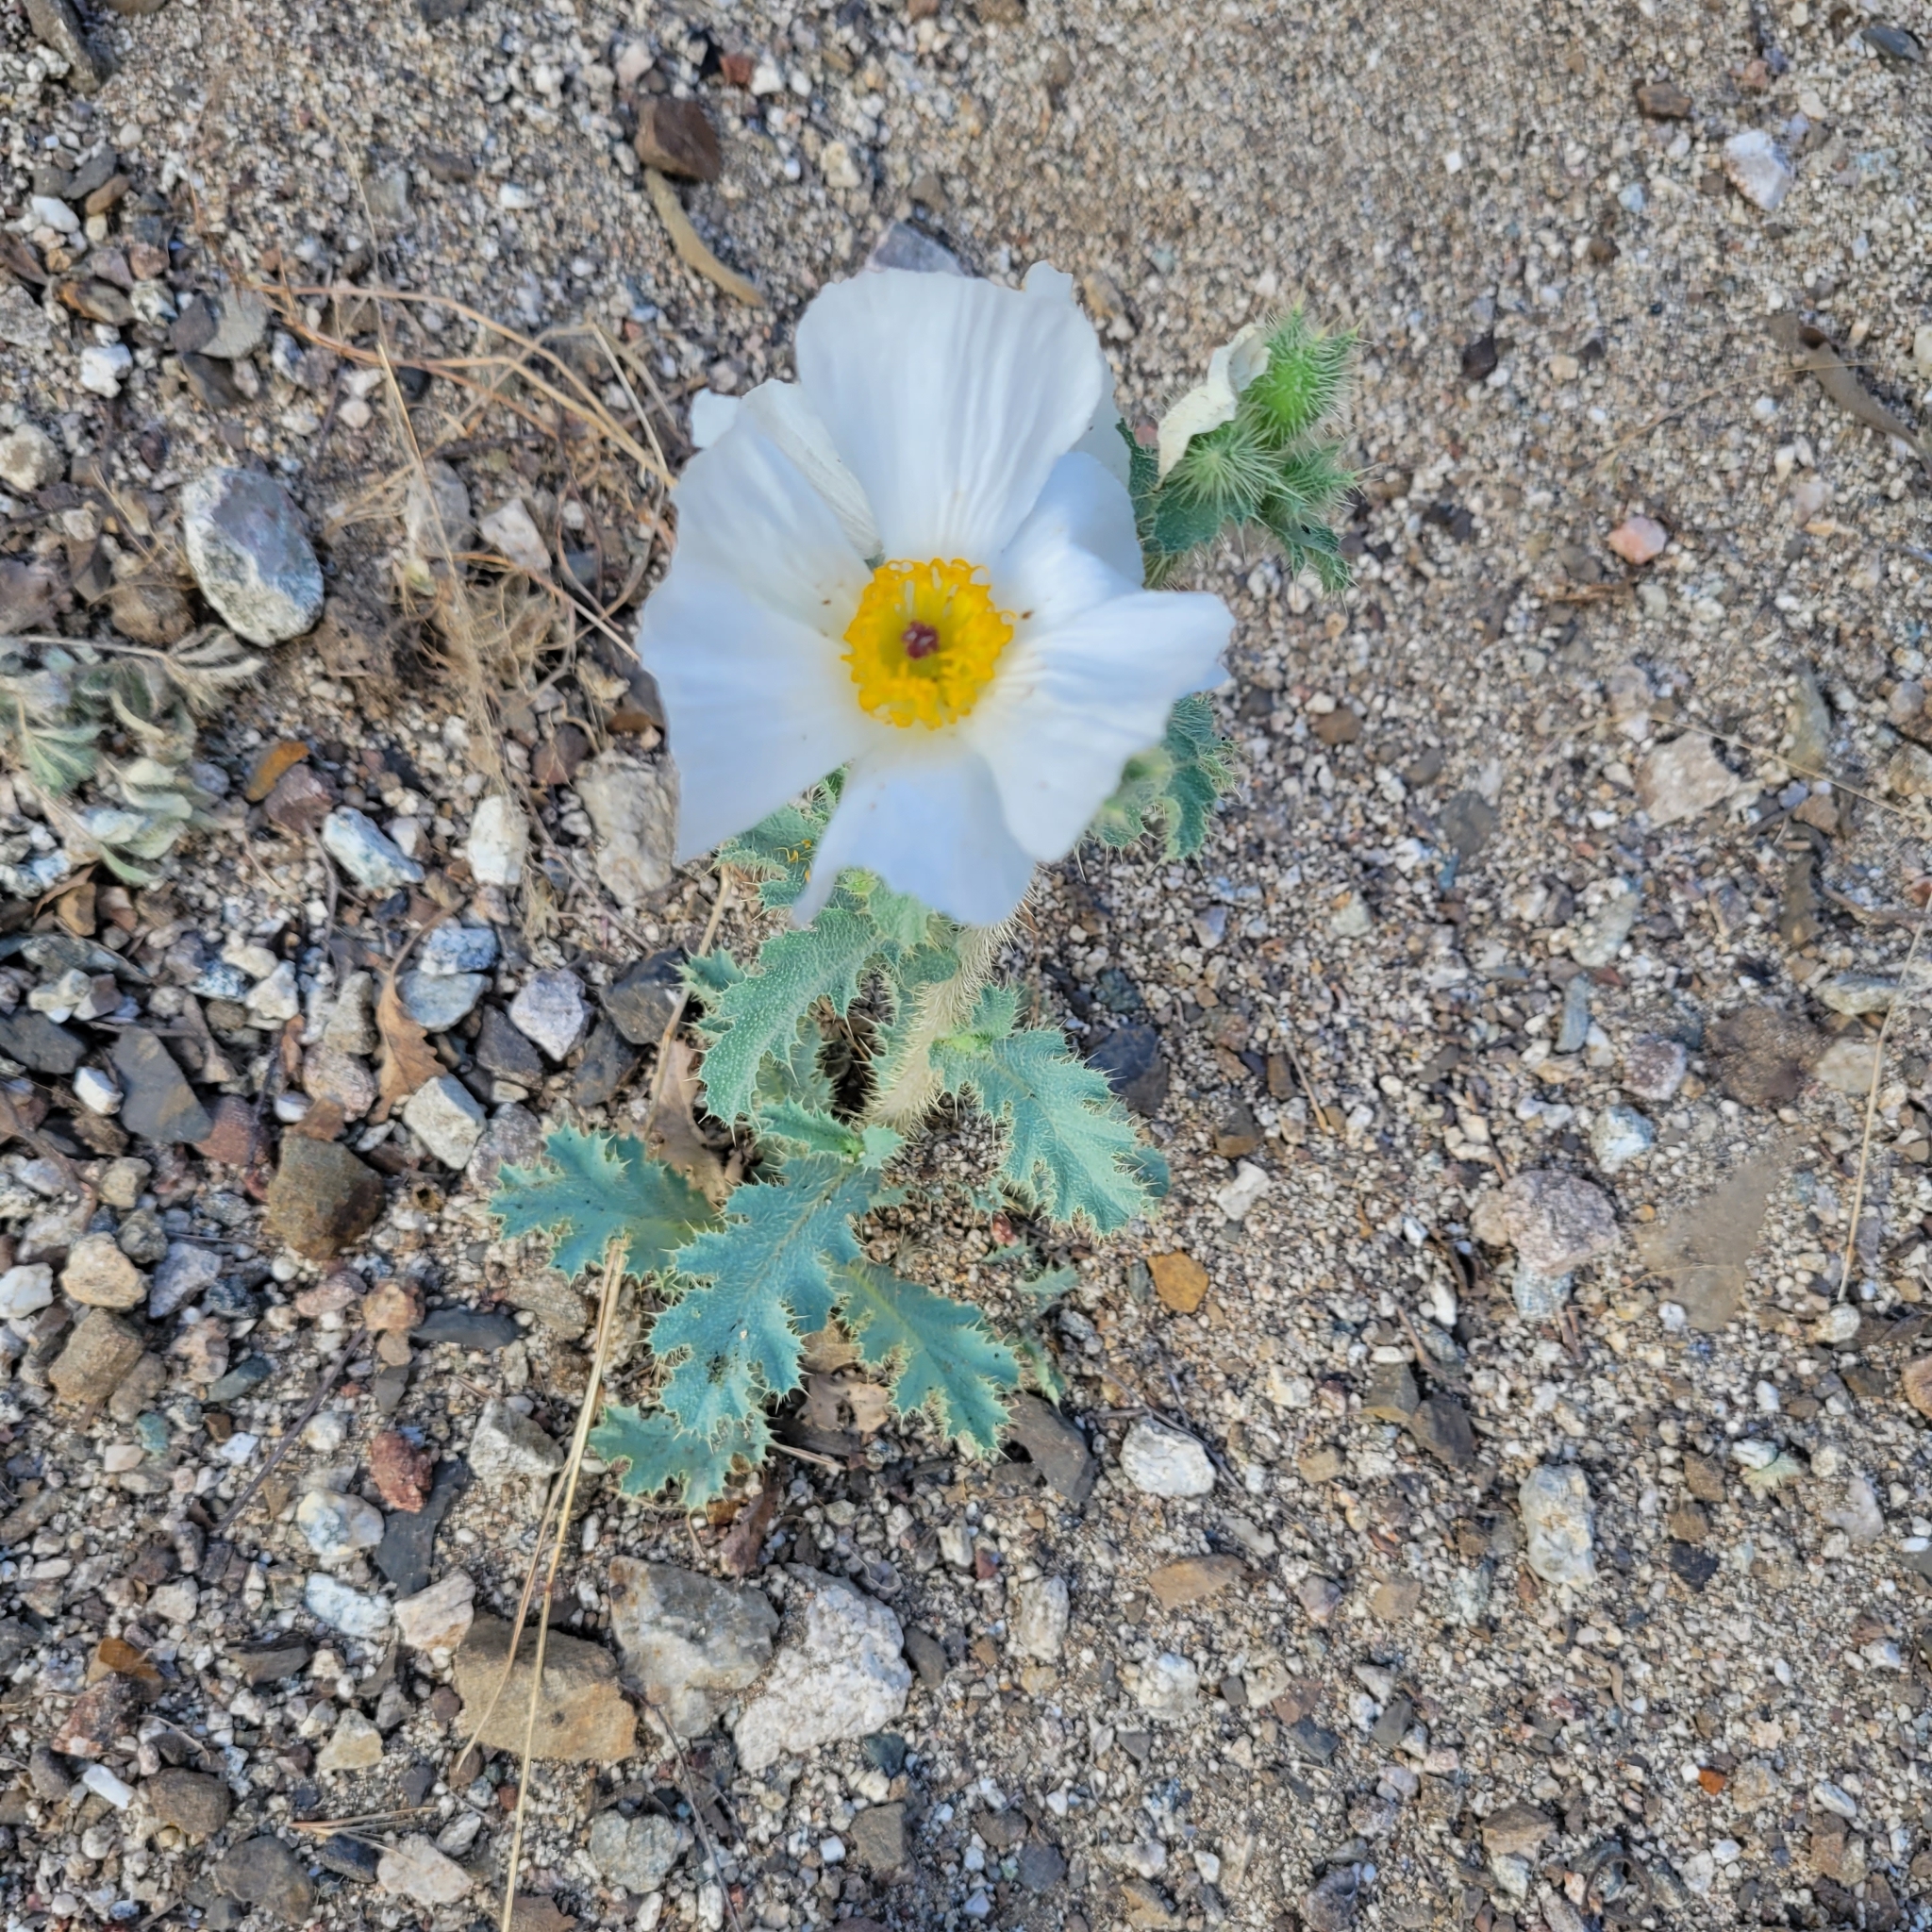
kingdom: Plantae
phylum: Tracheophyta
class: Magnoliopsida
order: Ranunculales
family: Papaveraceae
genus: Argemone
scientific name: Argemone munita
